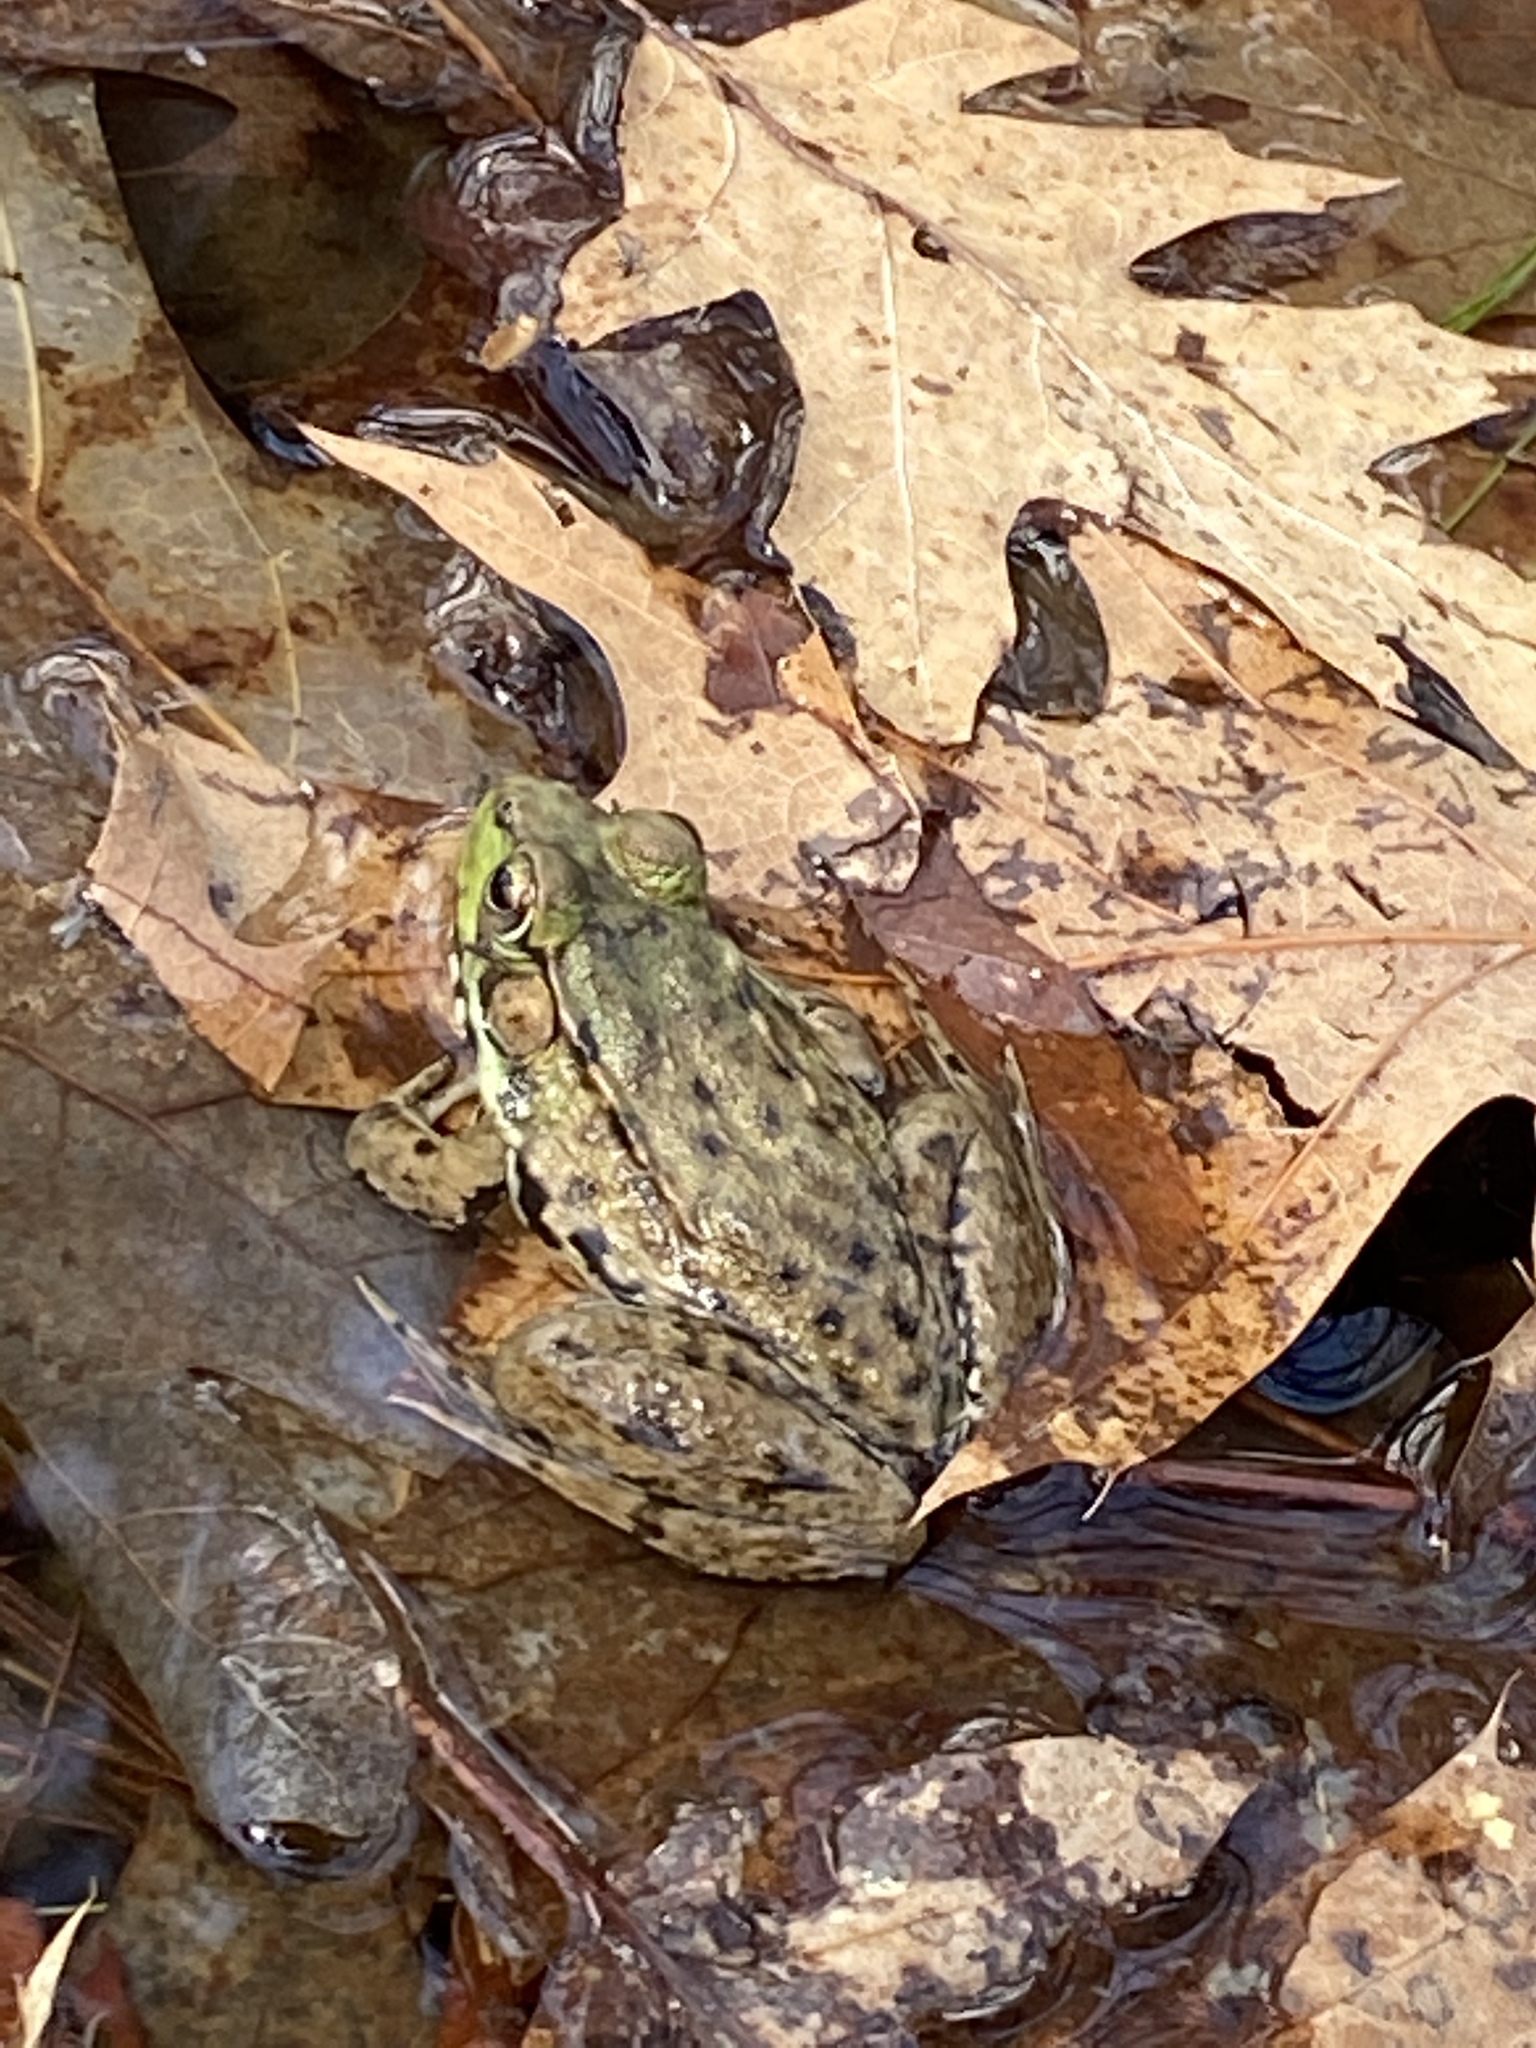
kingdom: Animalia
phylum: Chordata
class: Amphibia
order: Anura
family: Ranidae
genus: Lithobates
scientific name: Lithobates clamitans
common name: Green frog
